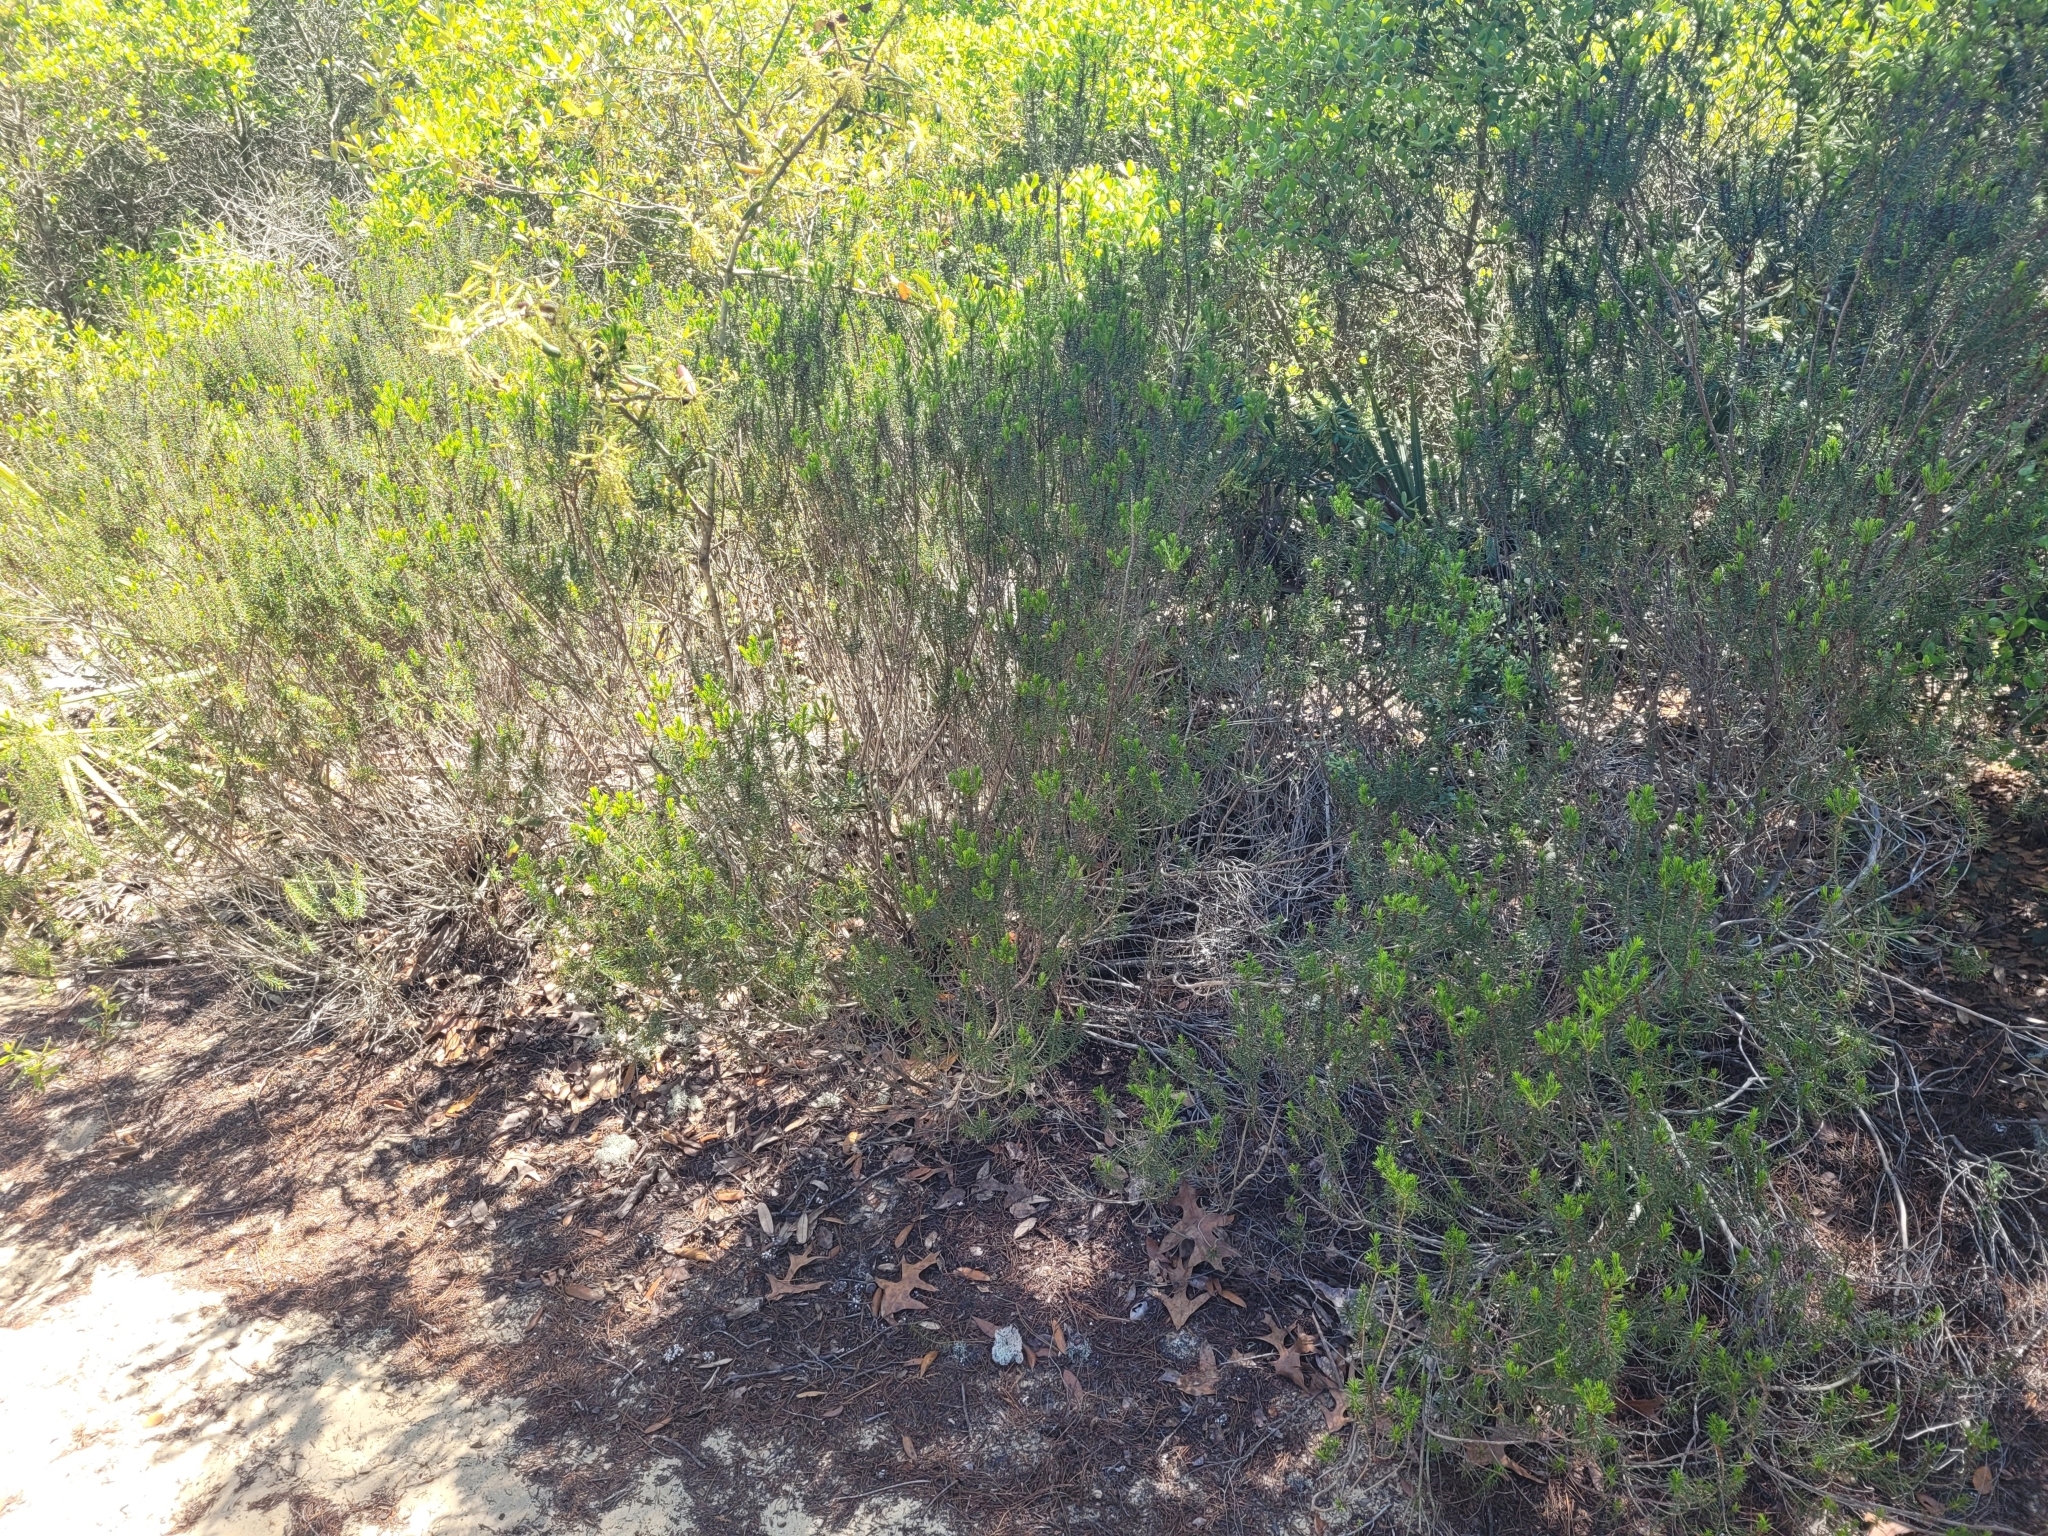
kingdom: Plantae
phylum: Tracheophyta
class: Magnoliopsida
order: Ericales
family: Ericaceae
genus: Ceratiola
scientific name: Ceratiola ericoides
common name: Sandhill-rosemary
